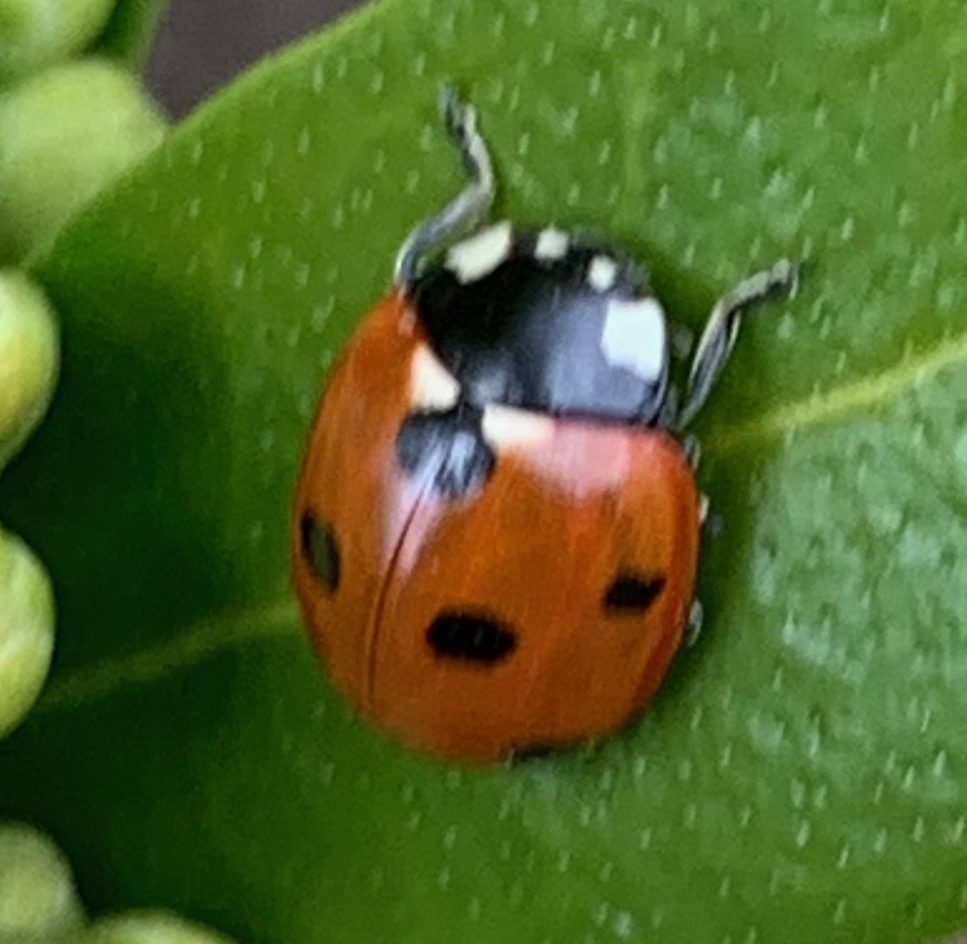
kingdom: Animalia
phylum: Arthropoda
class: Insecta
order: Coleoptera
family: Coccinellidae
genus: Coccinella
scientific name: Coccinella septempunctata
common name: Sevenspotted lady beetle
